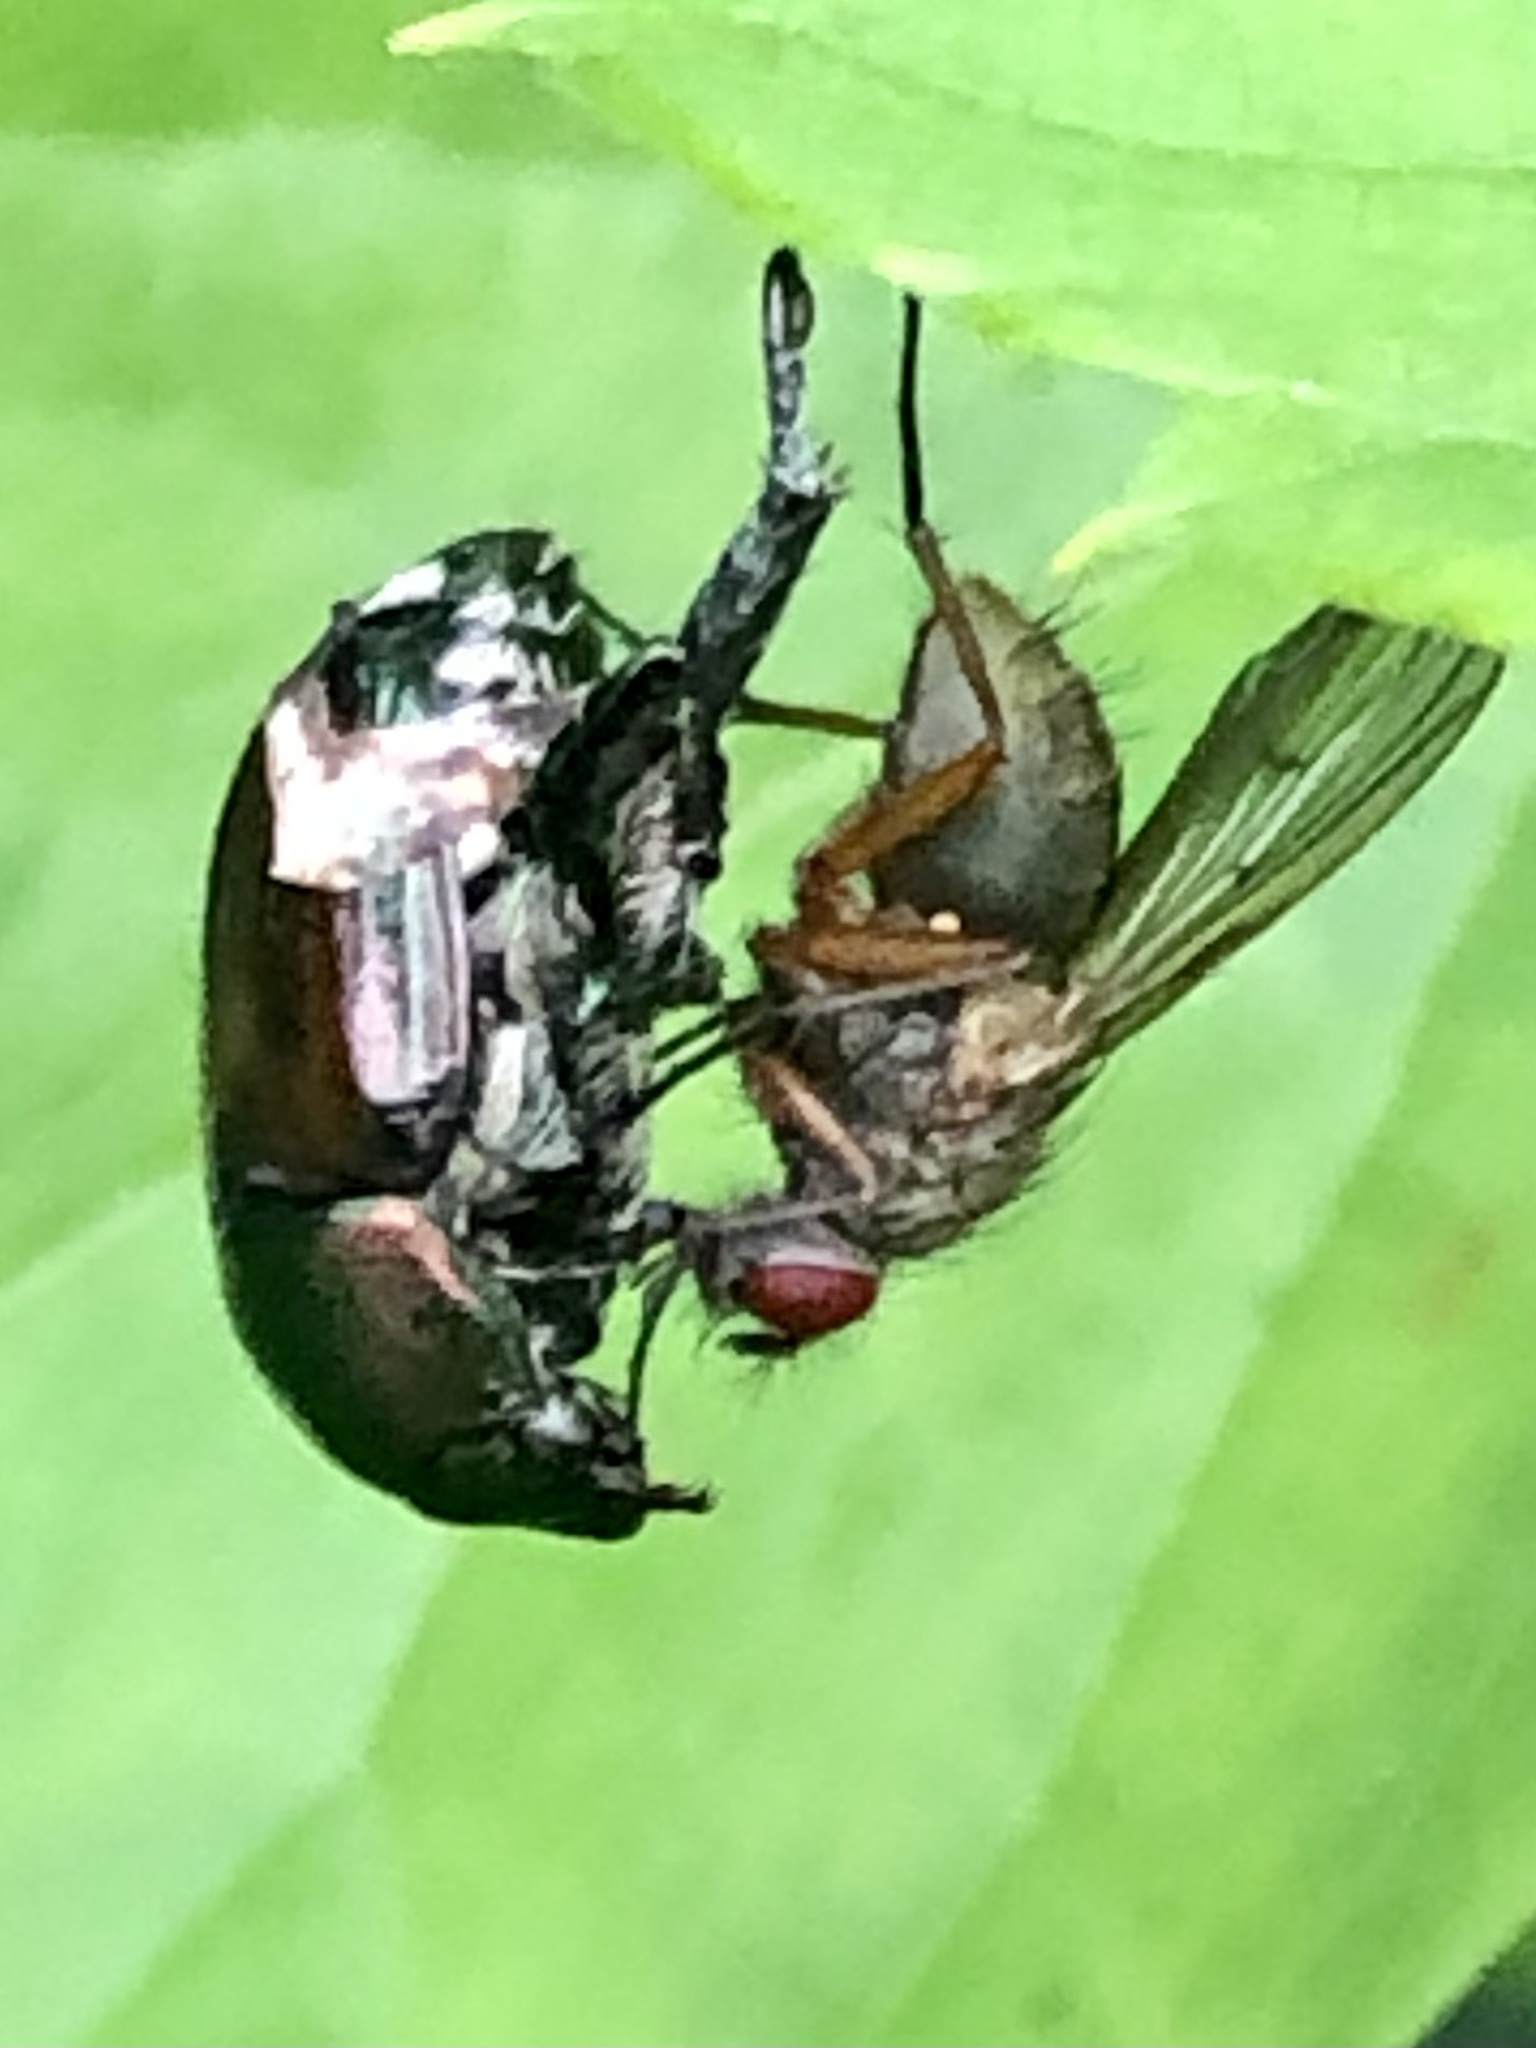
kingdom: Animalia
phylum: Arthropoda
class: Insecta
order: Coleoptera
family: Scarabaeidae
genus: Popillia
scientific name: Popillia japonica
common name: Japanese beetle
